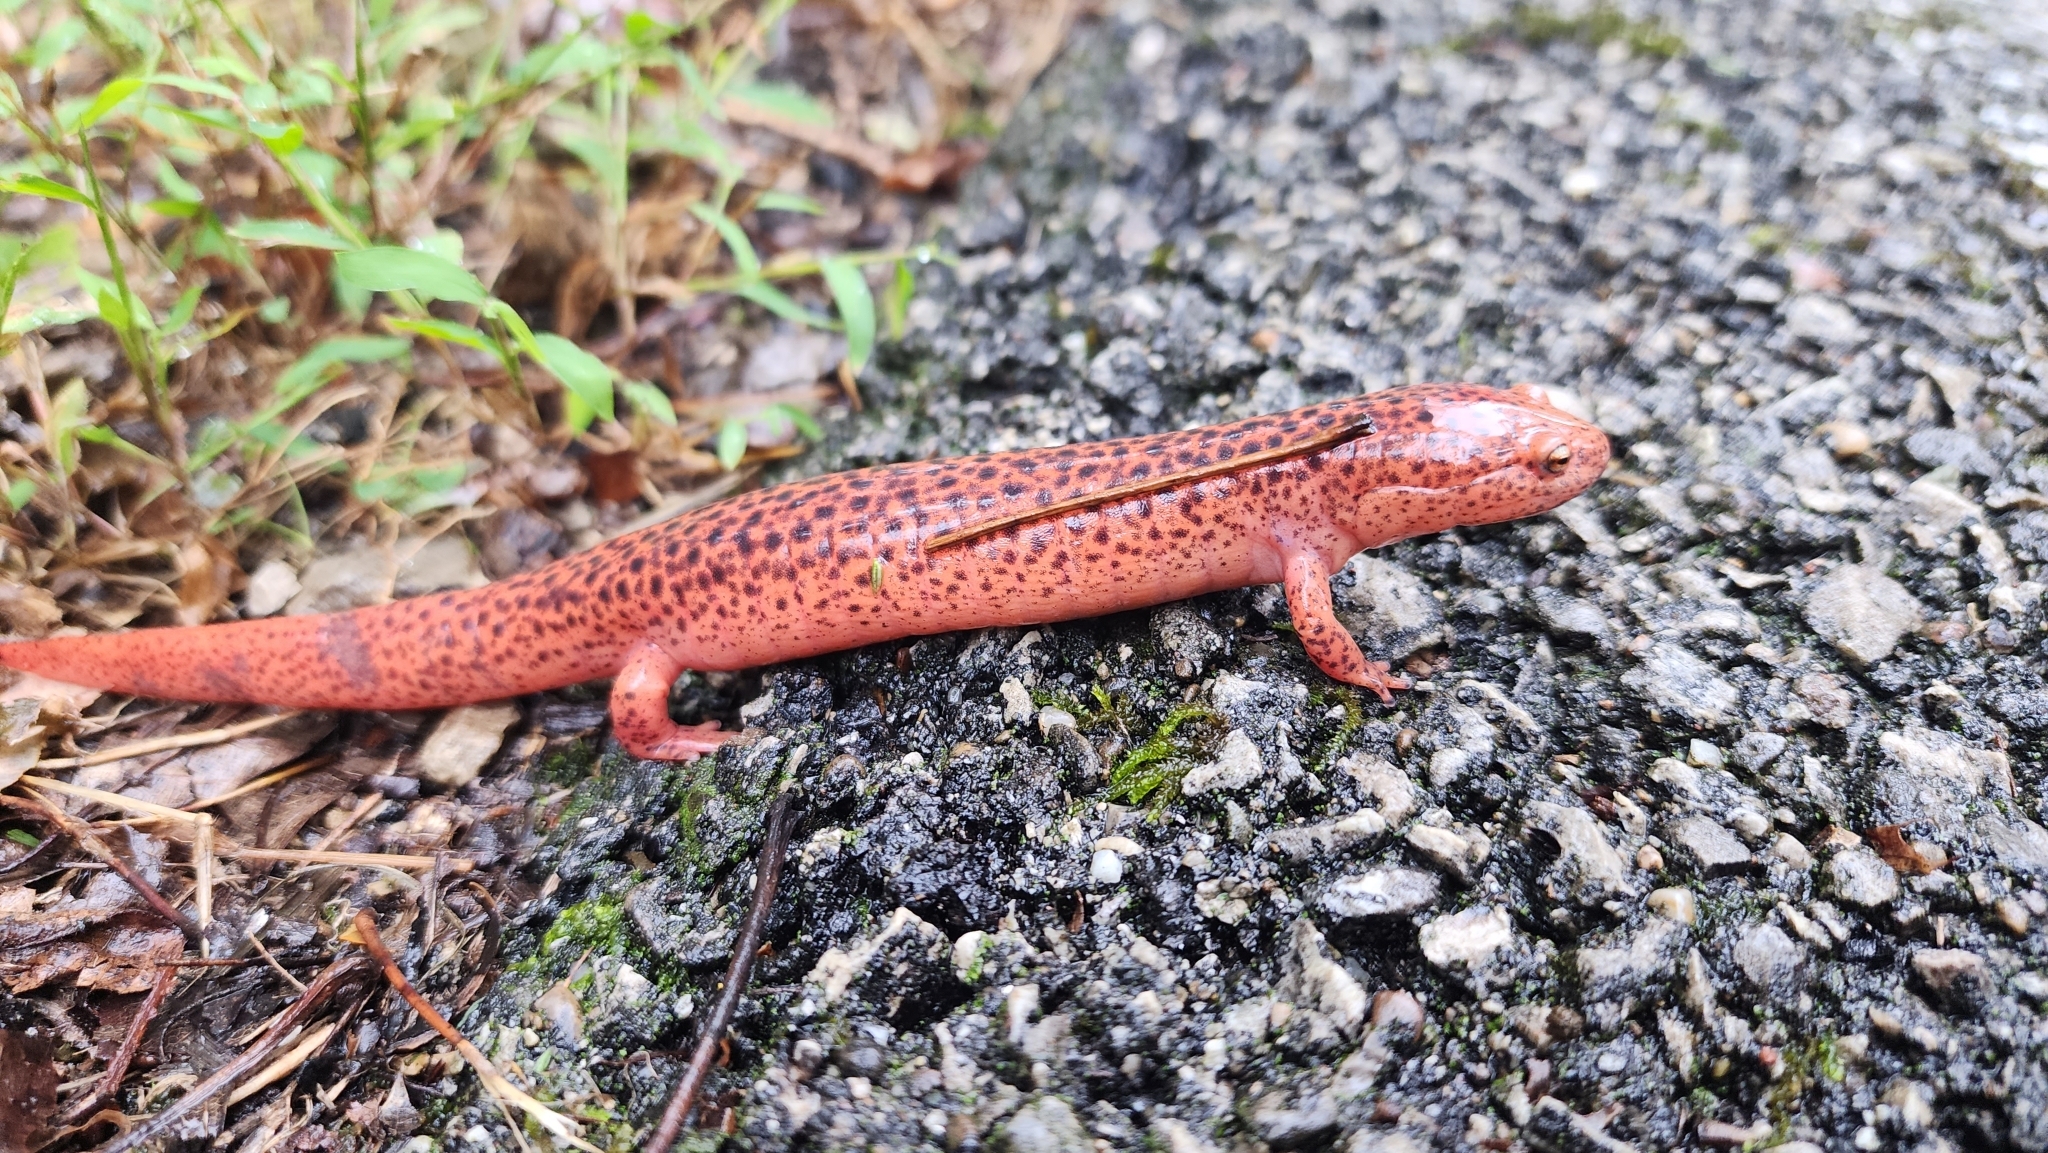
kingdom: Animalia
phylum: Chordata
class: Amphibia
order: Caudata
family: Plethodontidae
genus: Pseudotriton
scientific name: Pseudotriton ruber
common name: Red salamander
